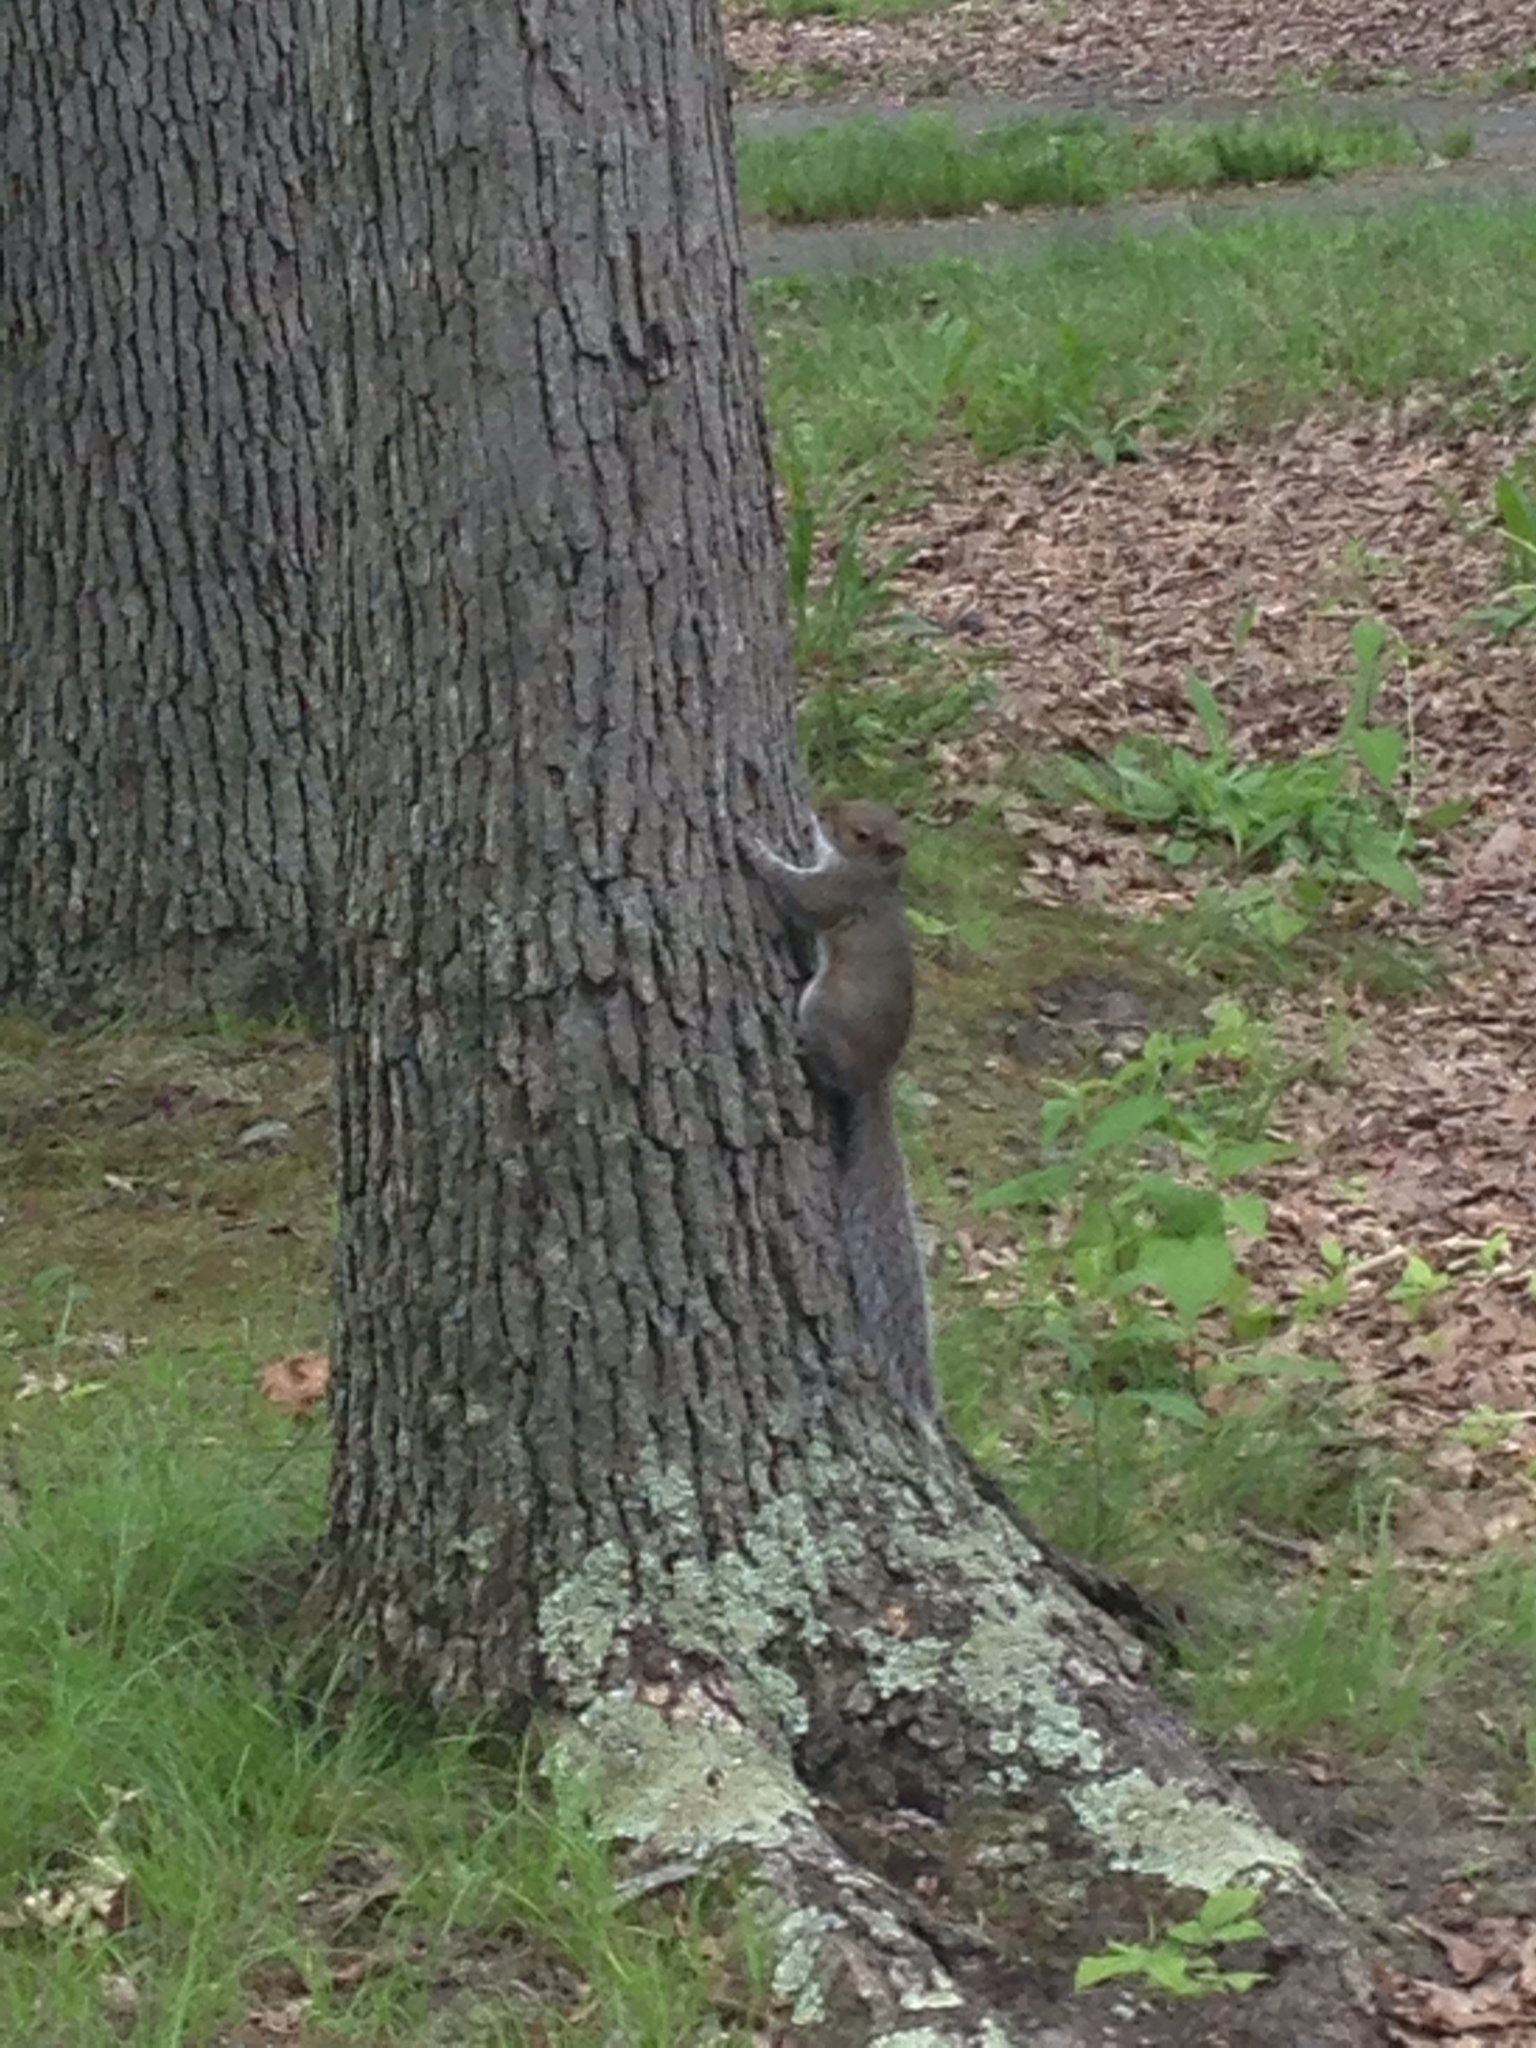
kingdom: Animalia
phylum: Chordata
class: Mammalia
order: Rodentia
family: Sciuridae
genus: Sciurus
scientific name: Sciurus carolinensis
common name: Eastern gray squirrel
